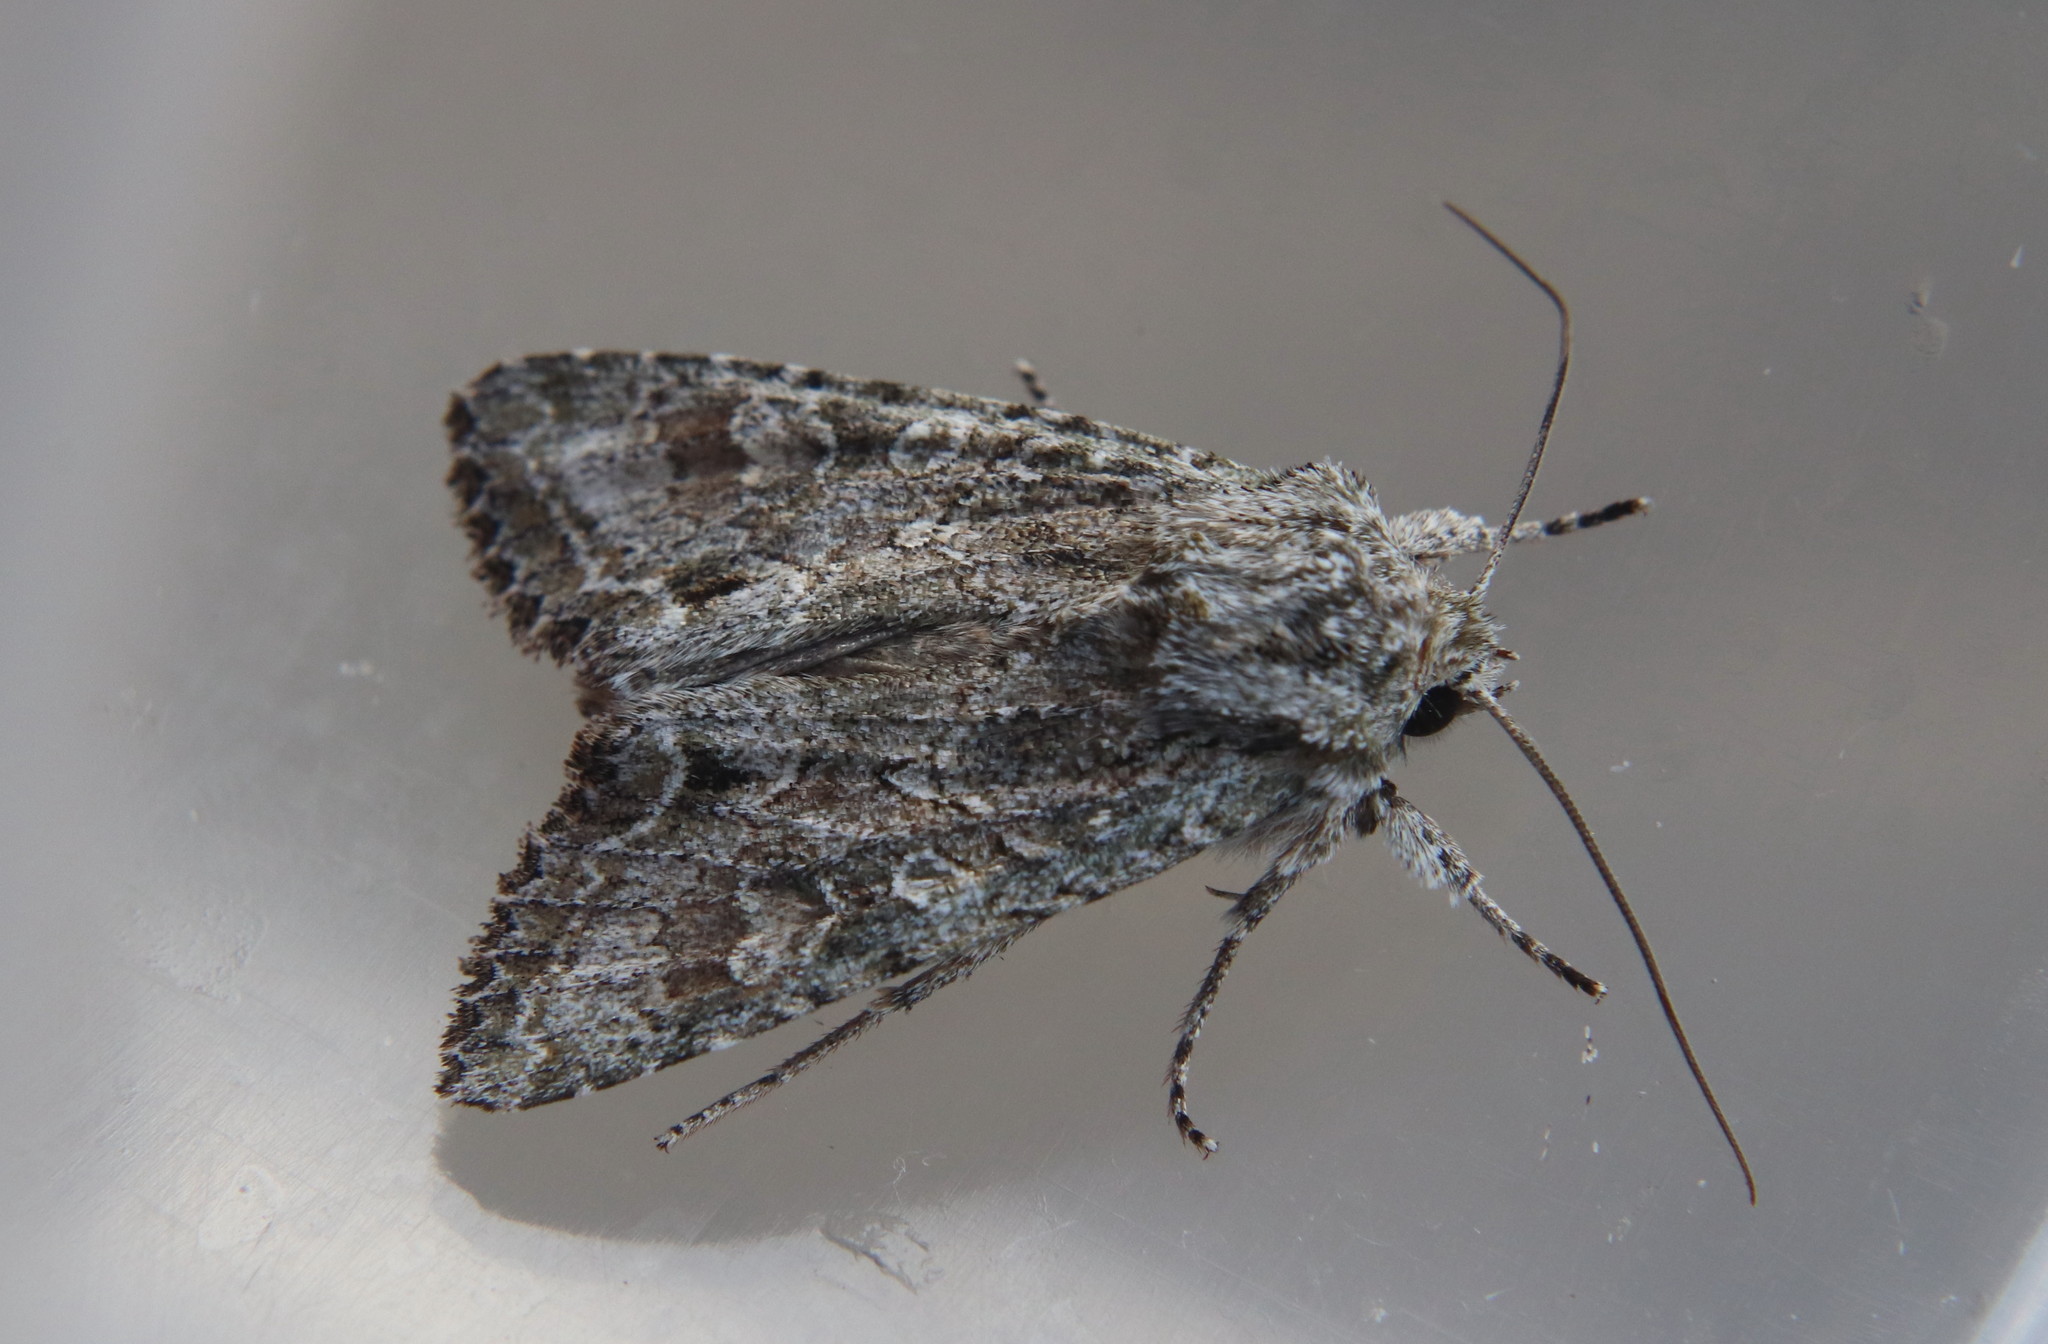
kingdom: Animalia
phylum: Arthropoda
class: Insecta
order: Lepidoptera
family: Noctuidae
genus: Ichneutica
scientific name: Ichneutica mutans
